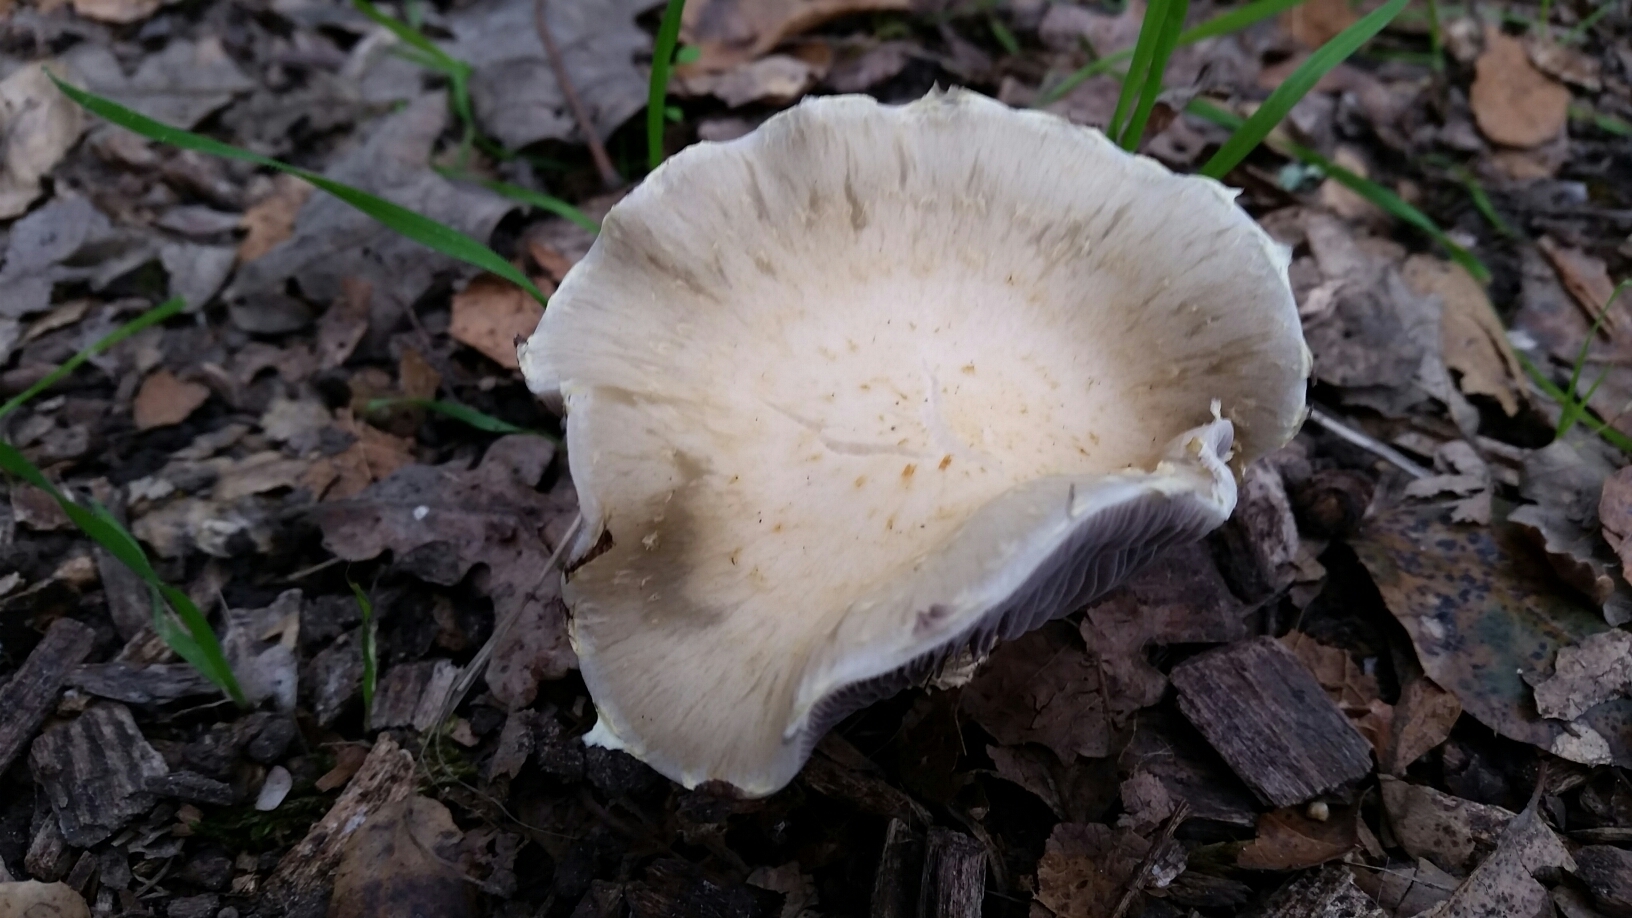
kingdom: Fungi
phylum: Basidiomycota
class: Agaricomycetes
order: Agaricales
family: Strophariaceae
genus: Leratiomyces
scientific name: Leratiomyces percevalii
